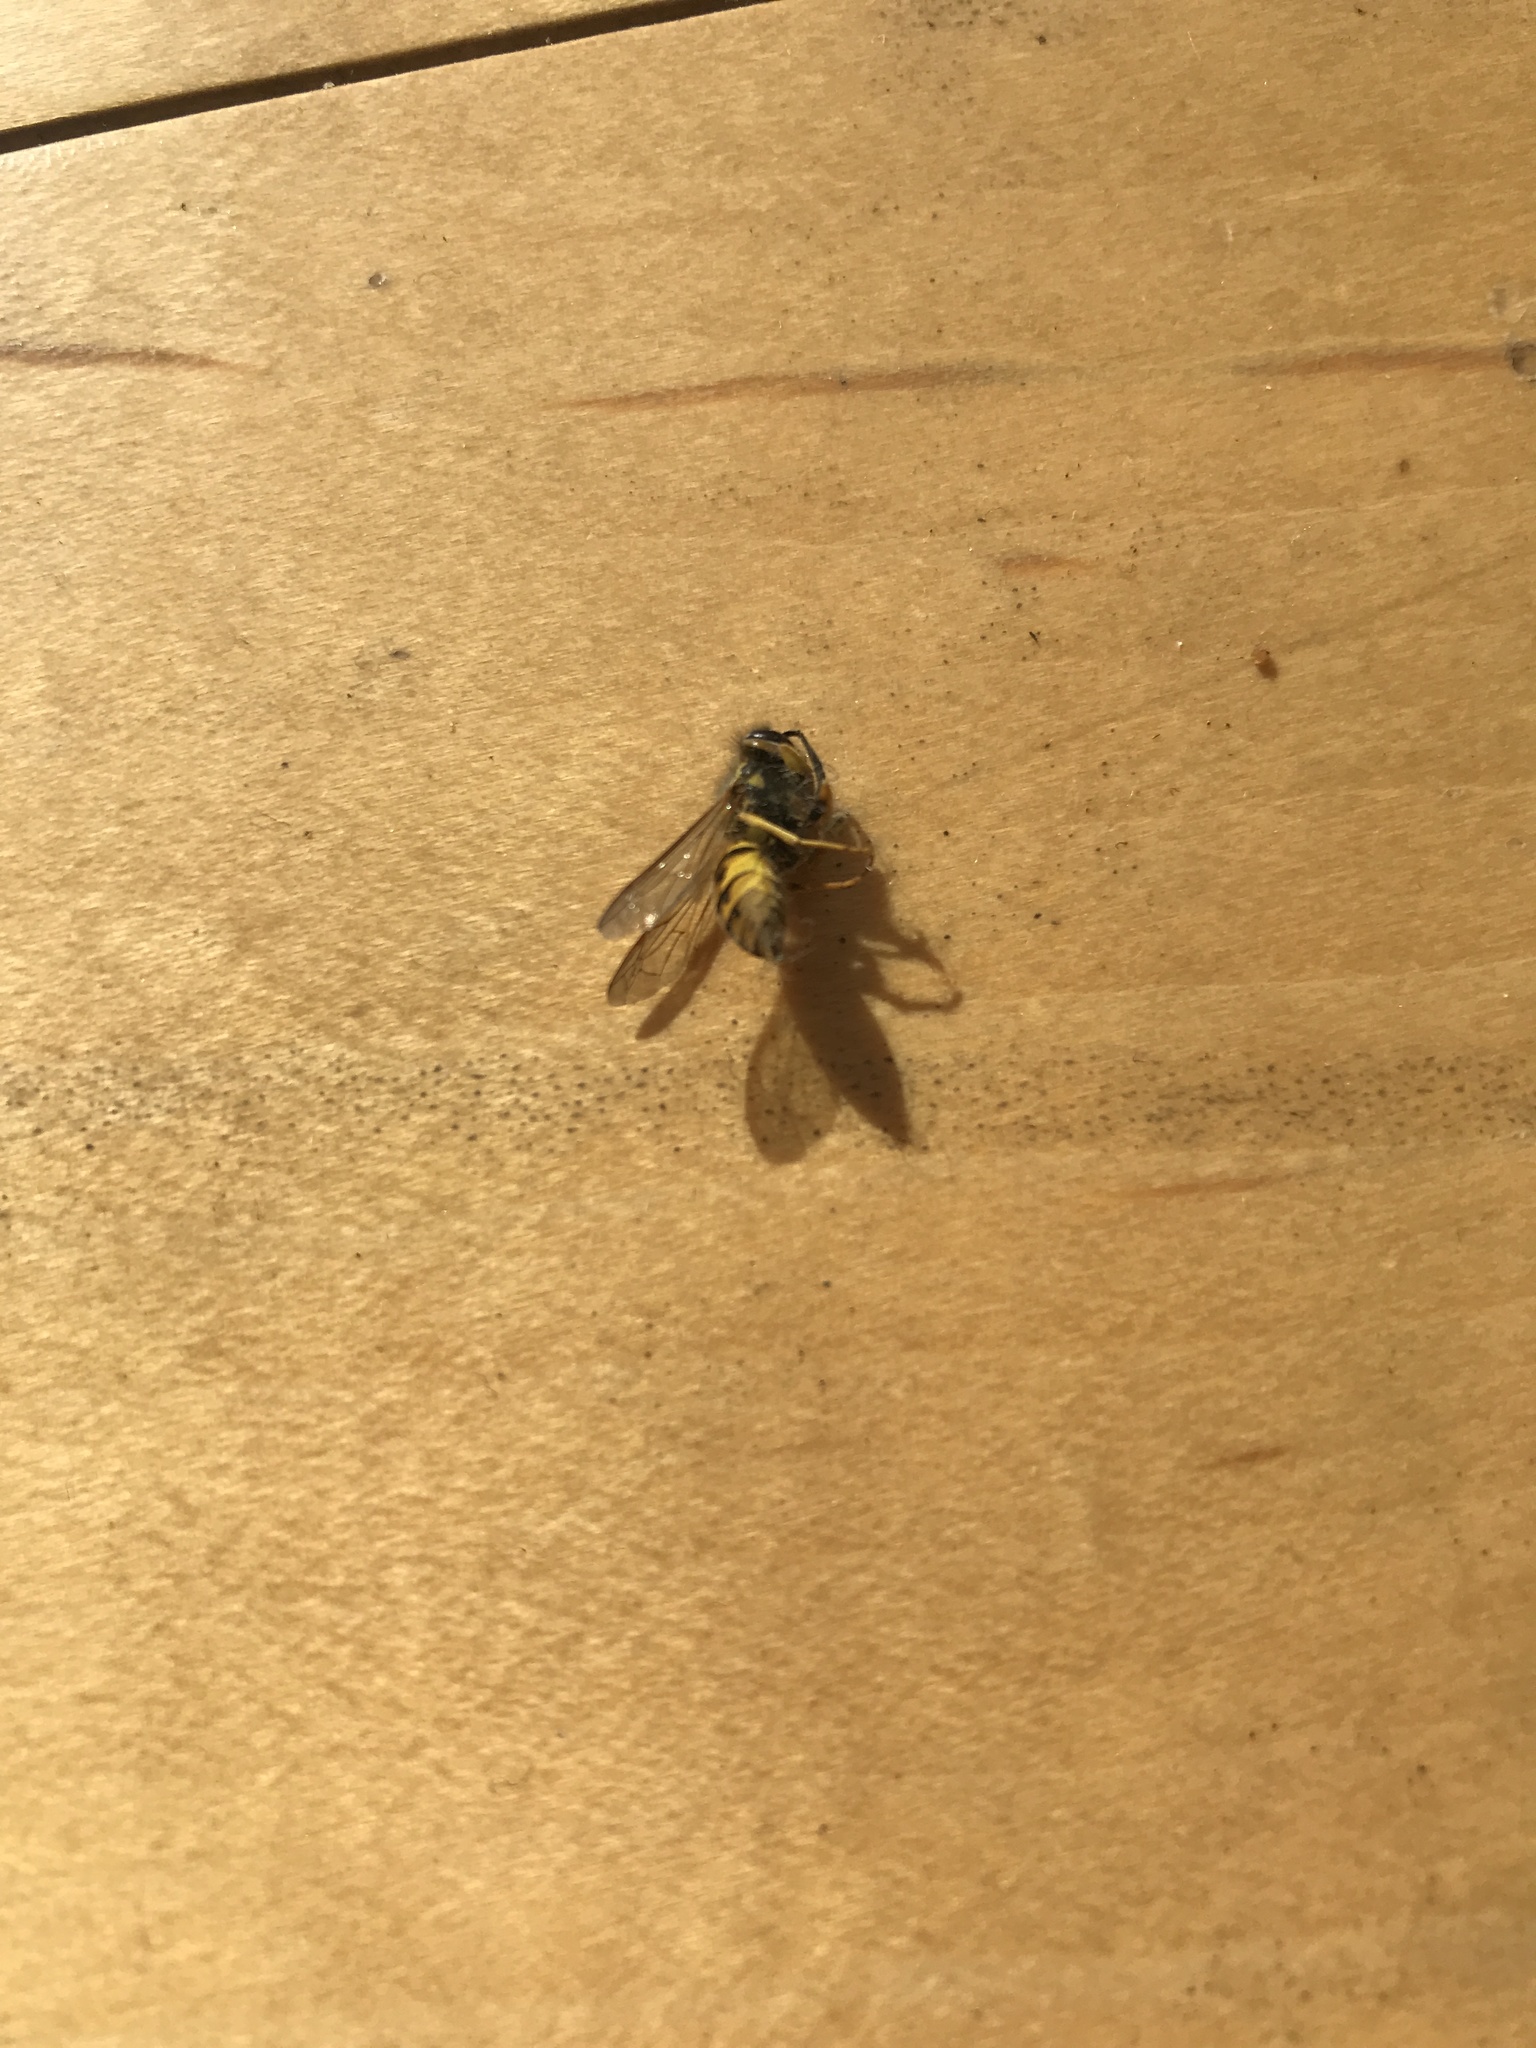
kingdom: Animalia
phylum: Arthropoda
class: Insecta
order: Hymenoptera
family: Vespidae
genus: Vespula
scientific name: Vespula germanica
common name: German wasp
